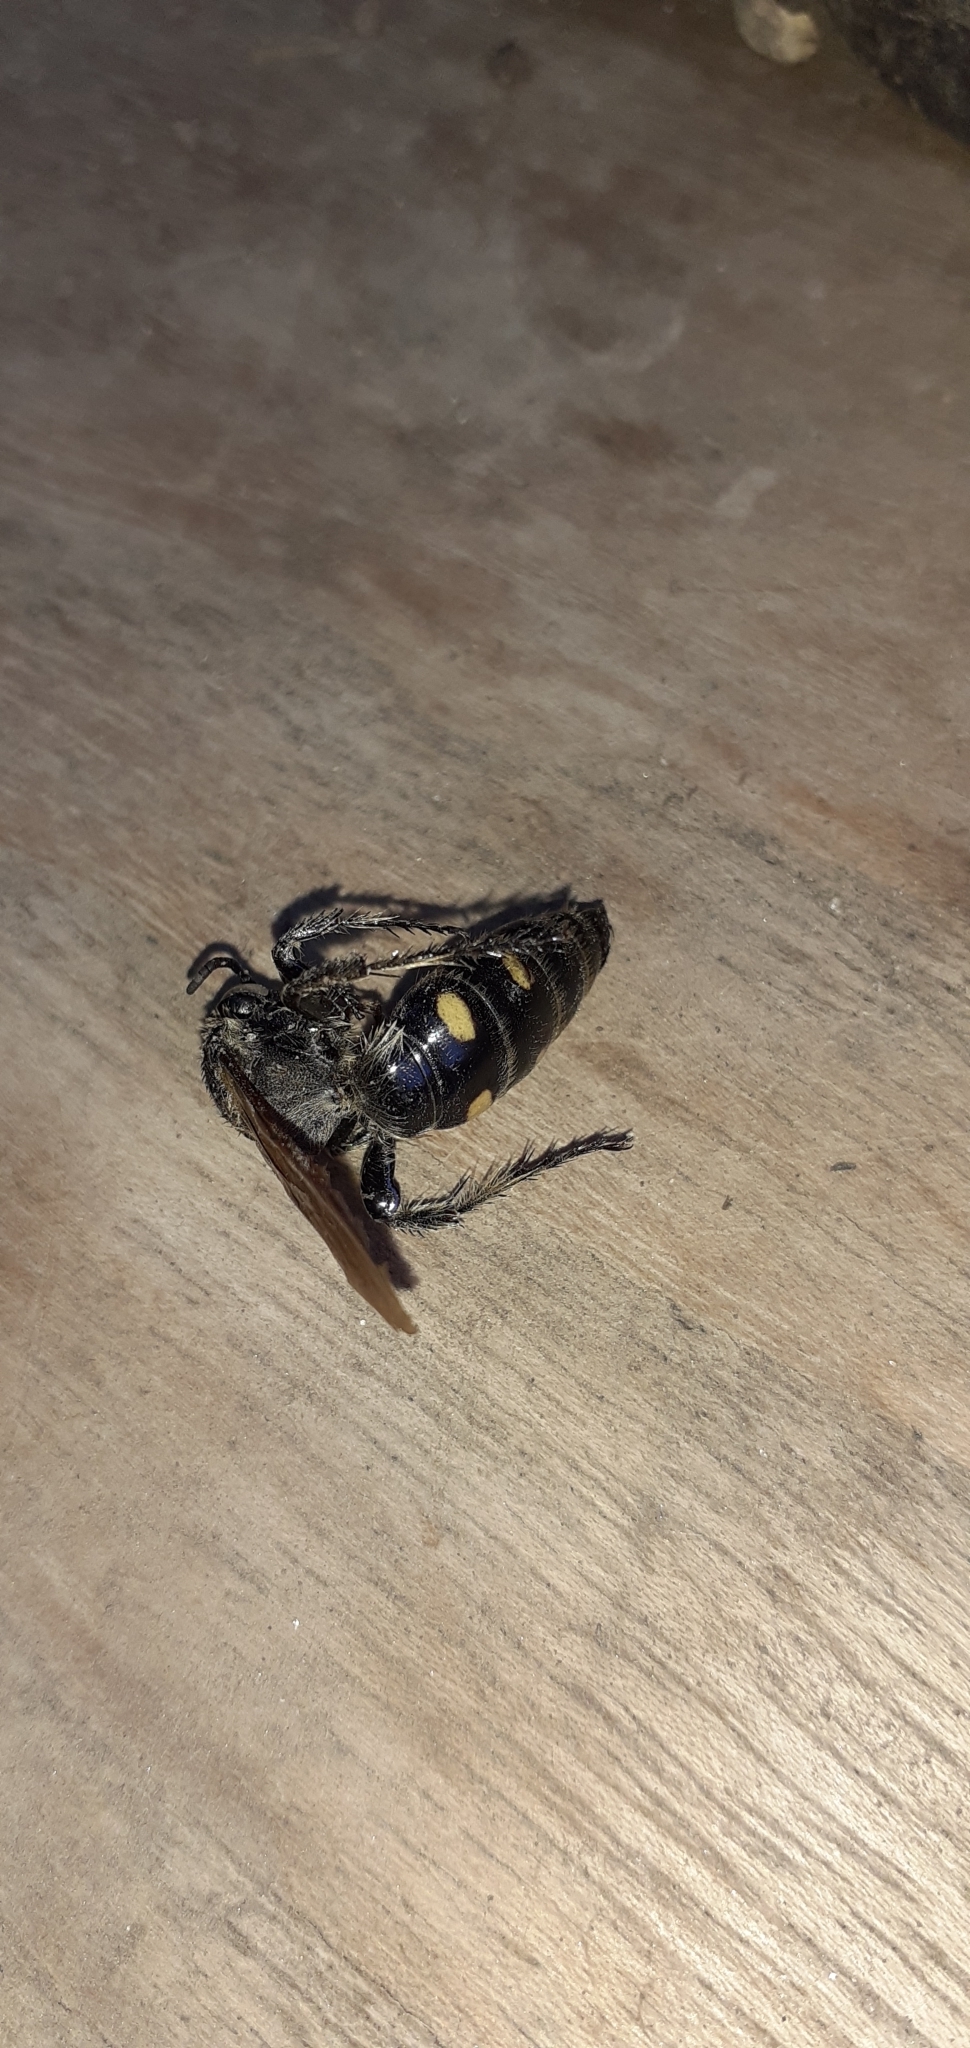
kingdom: Animalia
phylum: Arthropoda
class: Insecta
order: Hymenoptera
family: Scoliidae
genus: Pygodasis
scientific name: Pygodasis
